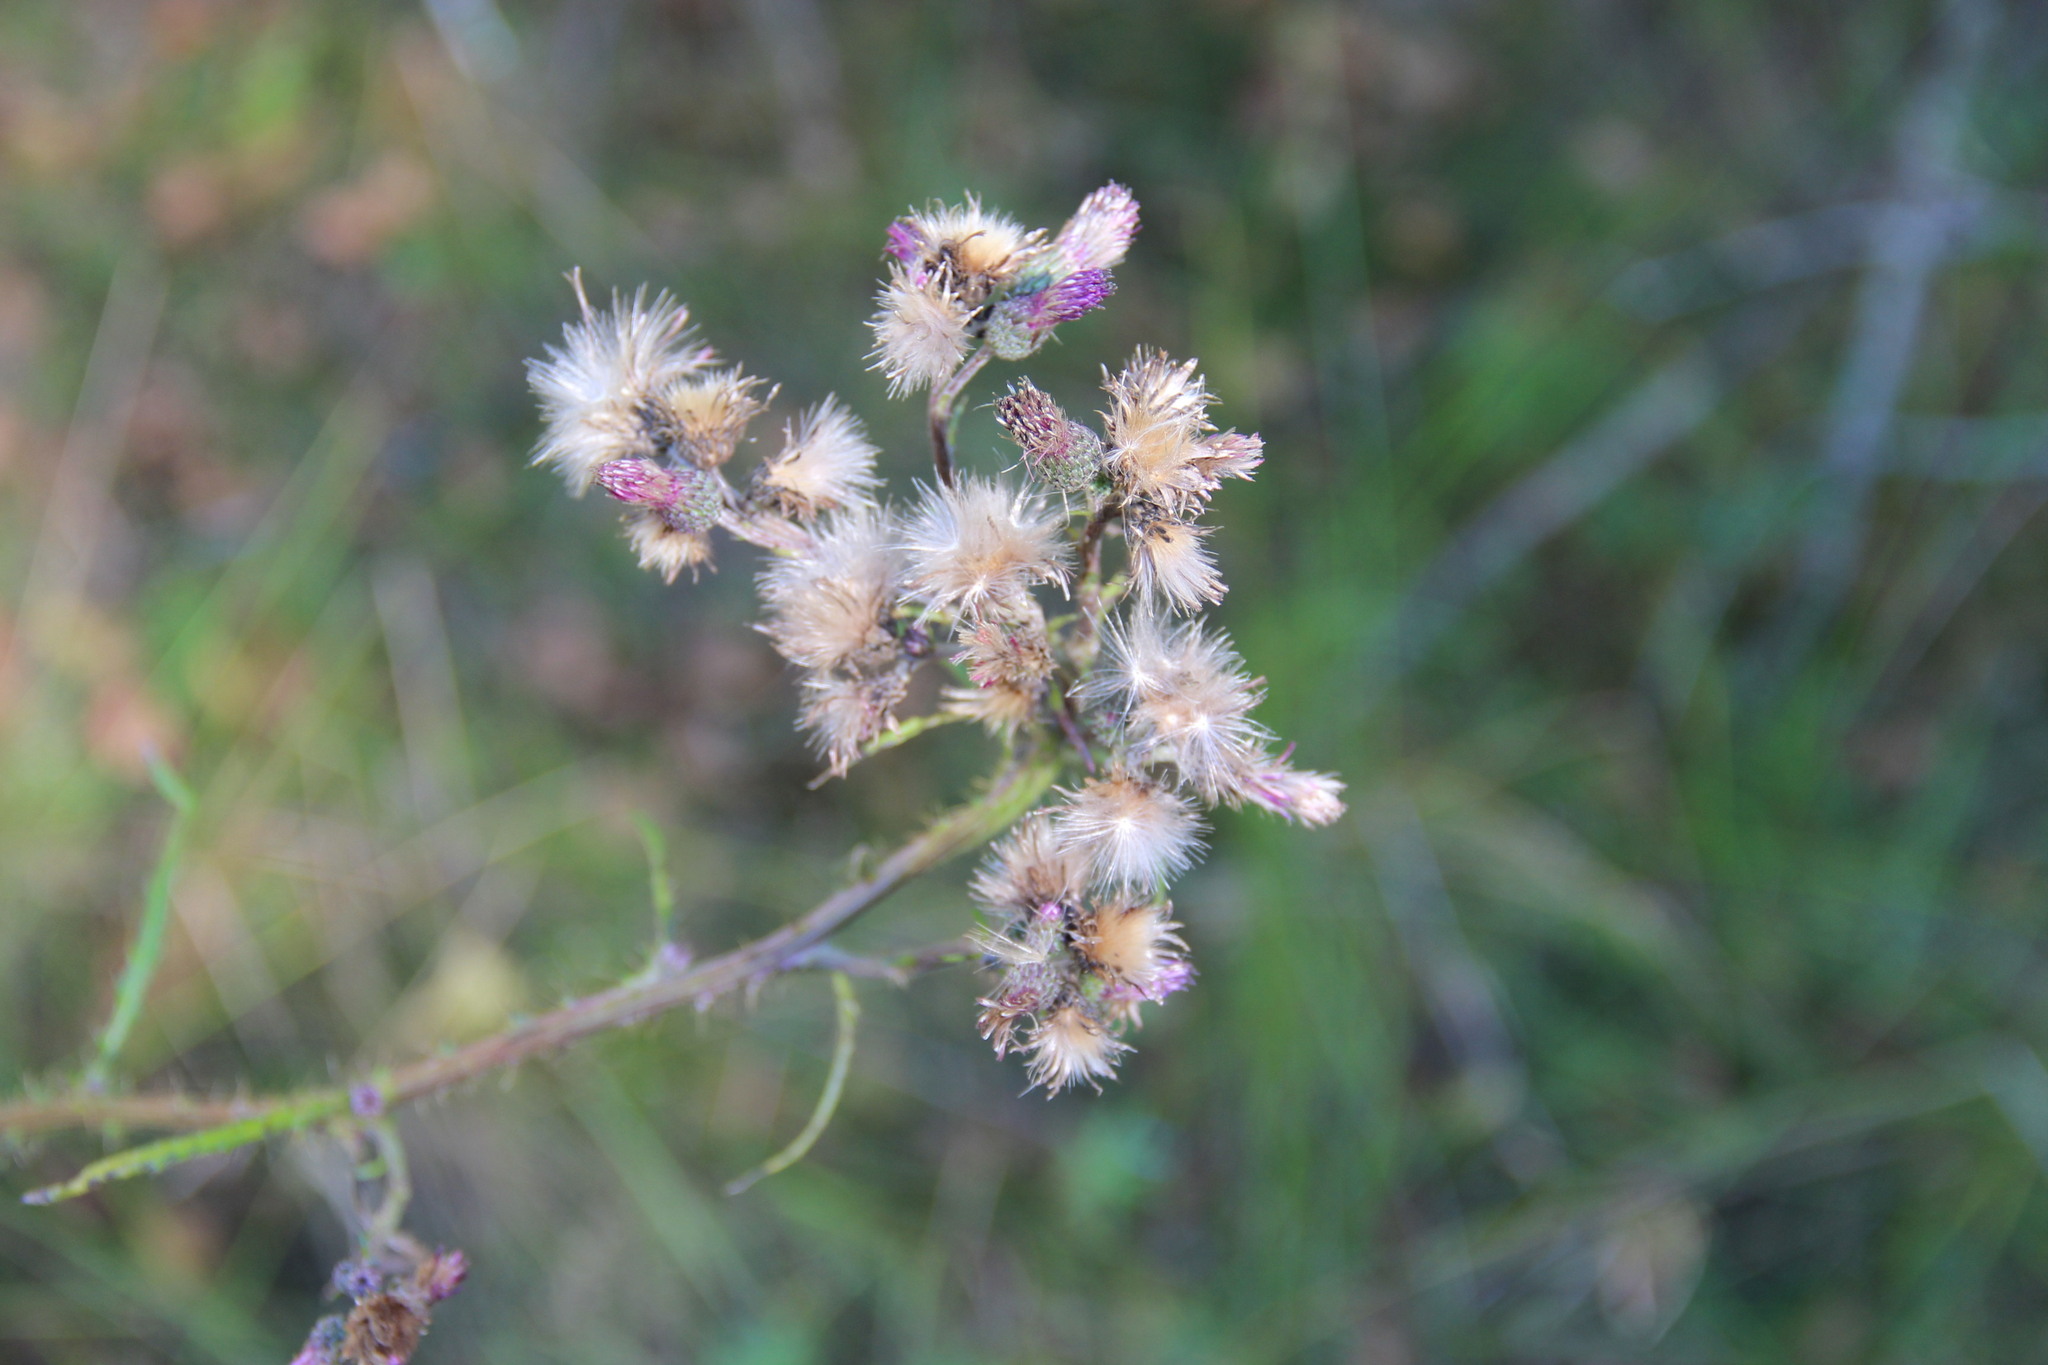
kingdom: Plantae
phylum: Tracheophyta
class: Magnoliopsida
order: Asterales
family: Asteraceae
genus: Cirsium
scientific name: Cirsium palustre
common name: Marsh thistle
